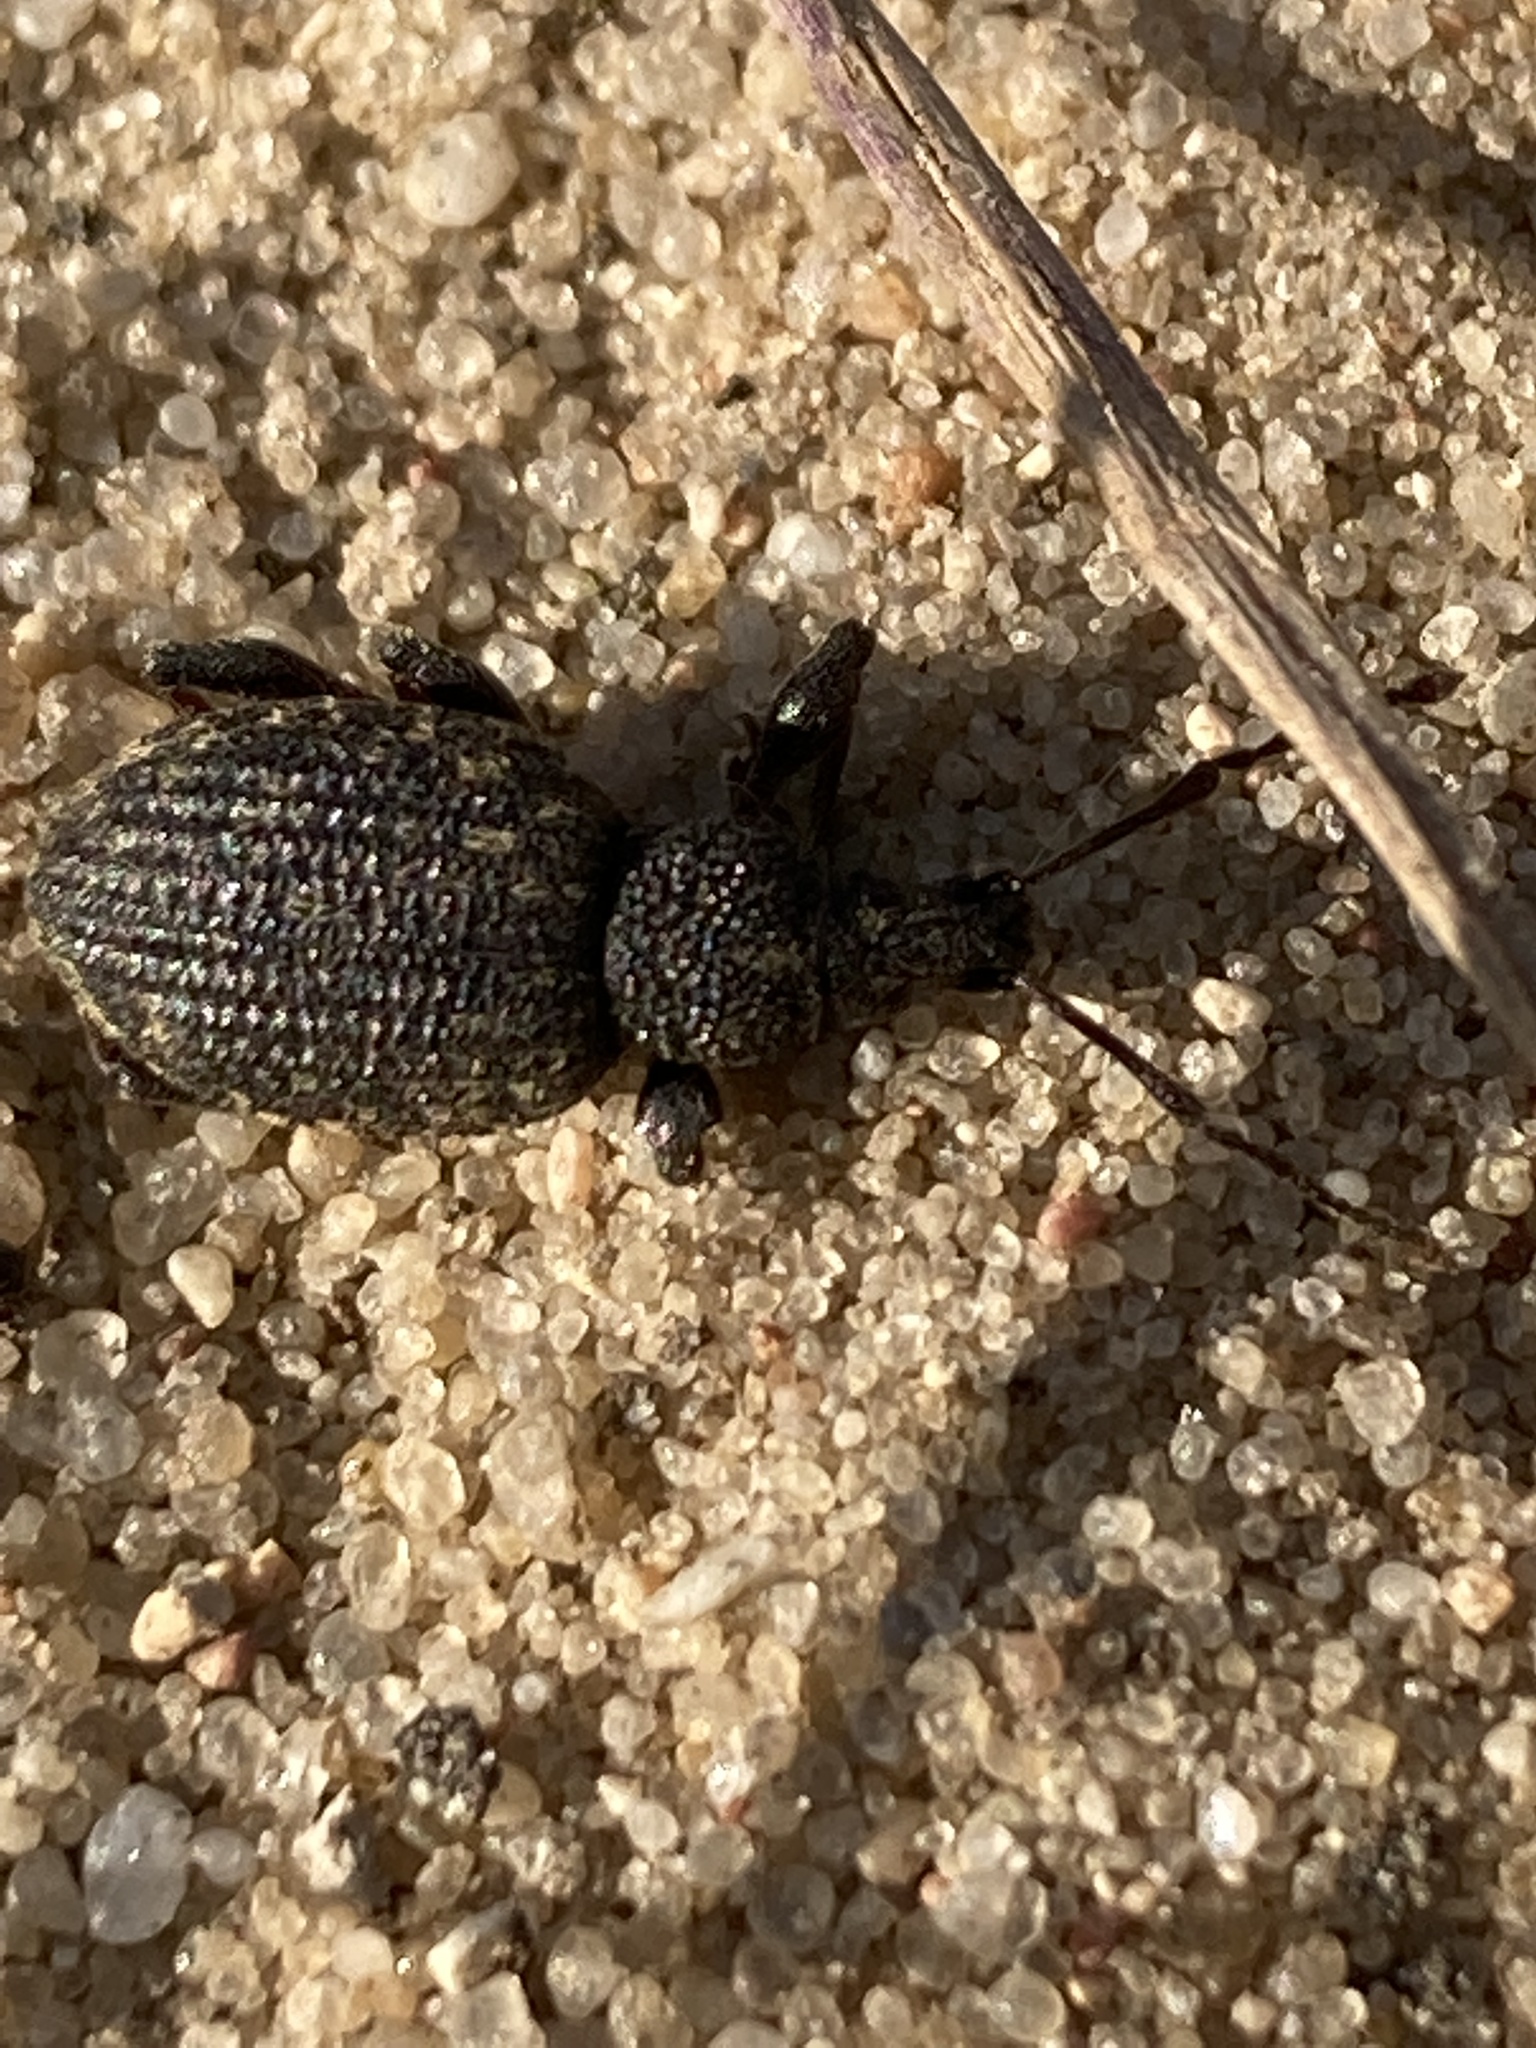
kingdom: Animalia
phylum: Arthropoda
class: Insecta
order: Coleoptera
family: Curculionidae
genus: Otiorhynchus
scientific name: Otiorhynchus sulcatus
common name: Black vine weevil
